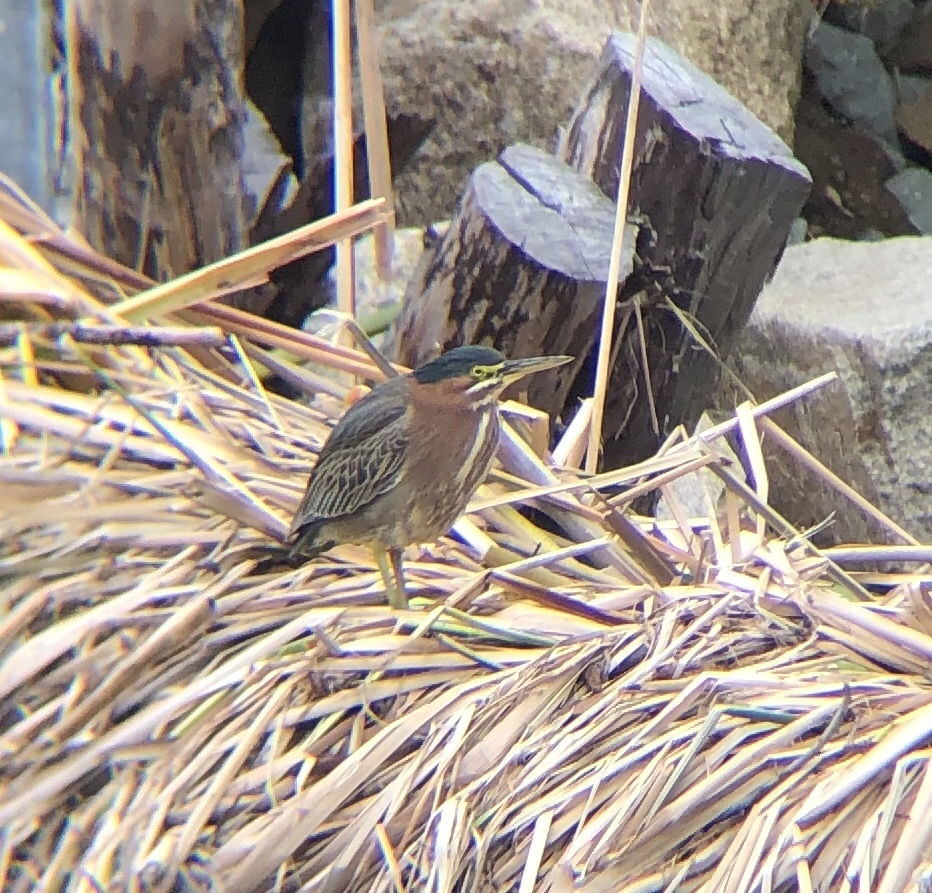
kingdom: Animalia
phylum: Chordata
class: Aves
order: Pelecaniformes
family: Ardeidae
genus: Butorides
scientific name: Butorides virescens
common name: Green heron
